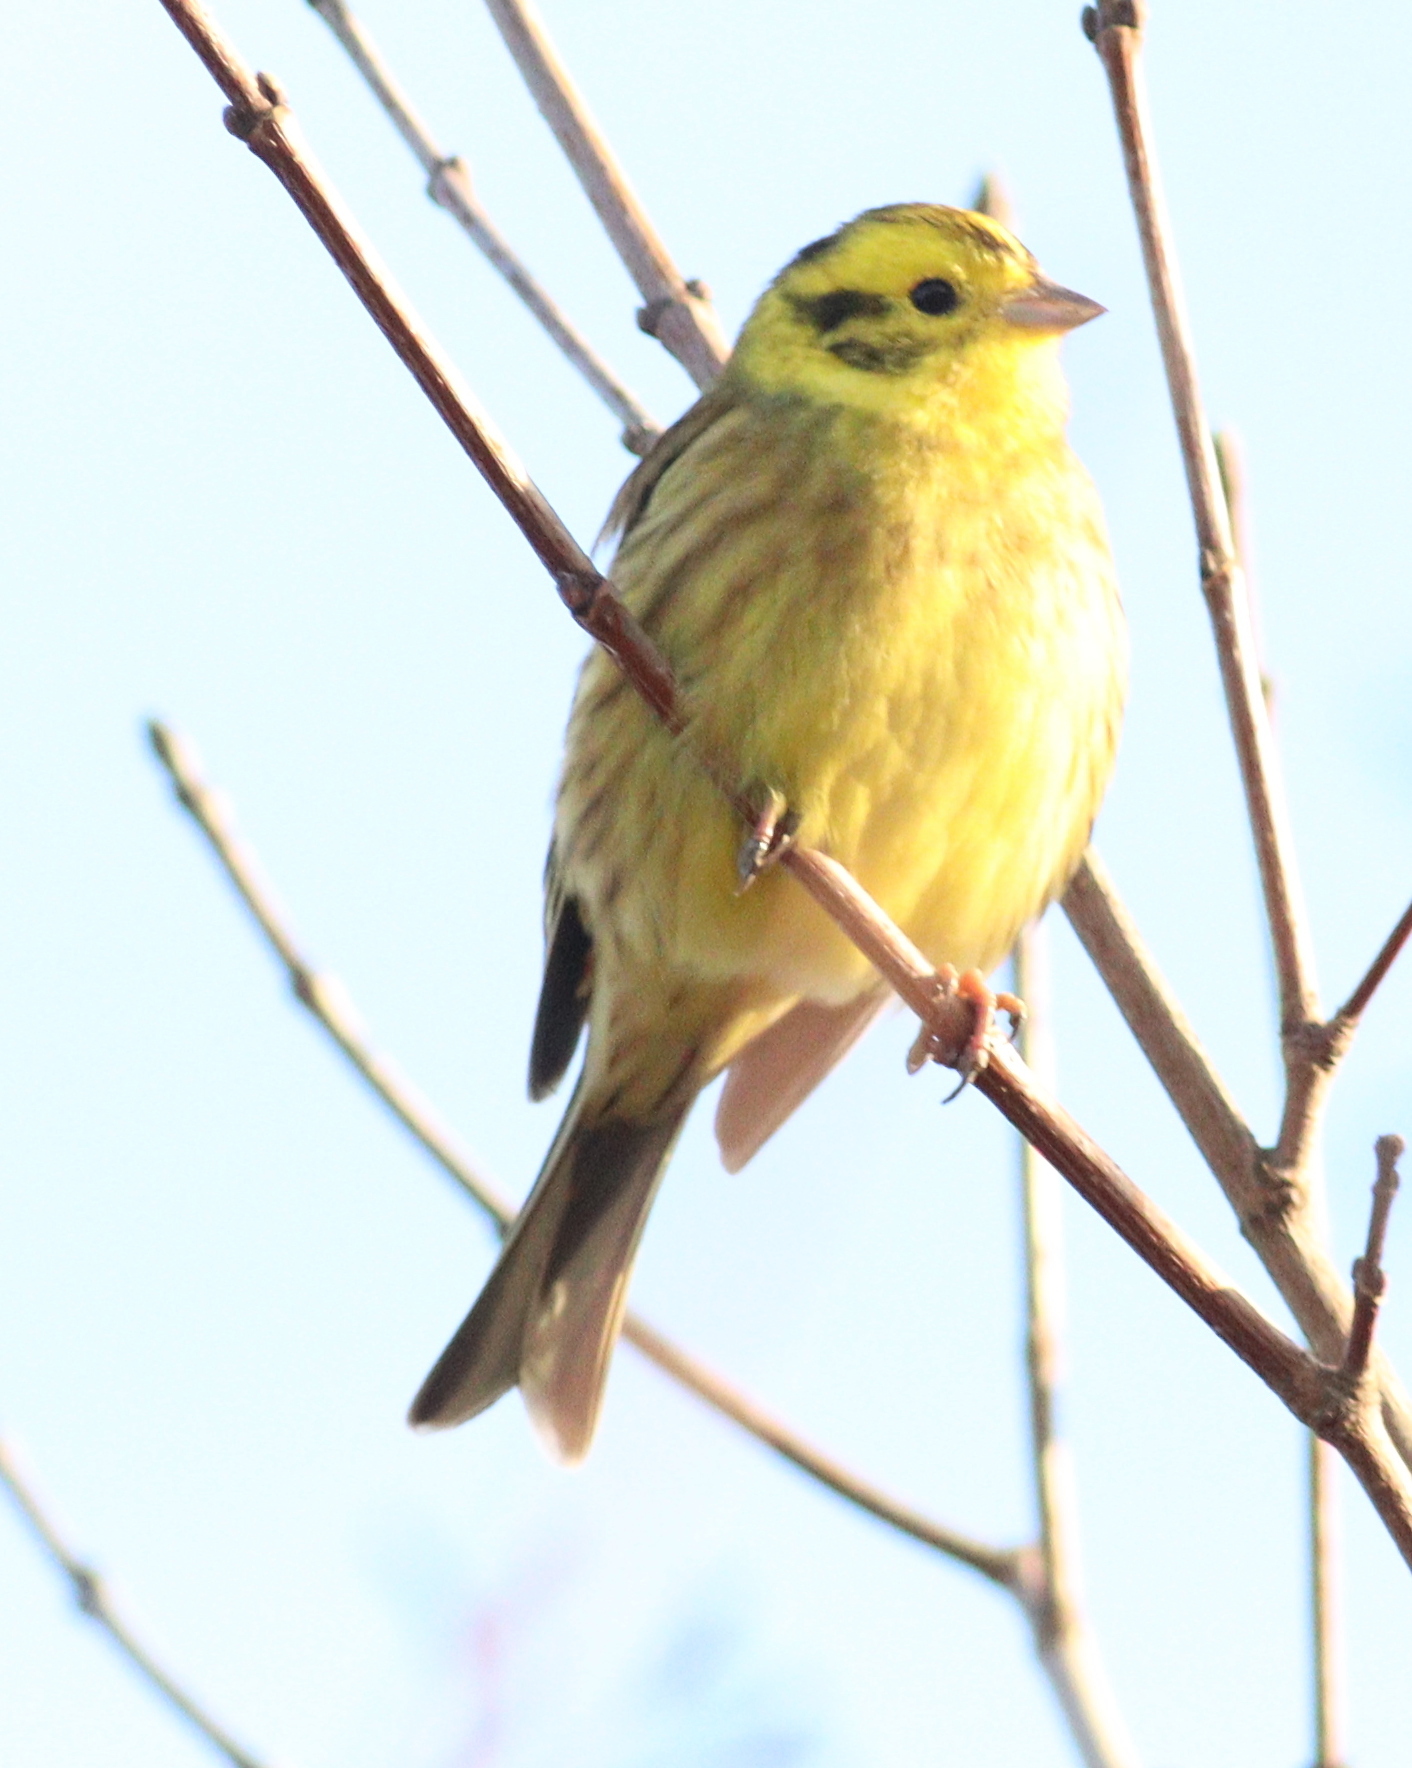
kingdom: Animalia
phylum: Chordata
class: Aves
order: Passeriformes
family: Emberizidae
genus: Emberiza
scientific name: Emberiza citrinella
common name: Yellowhammer
